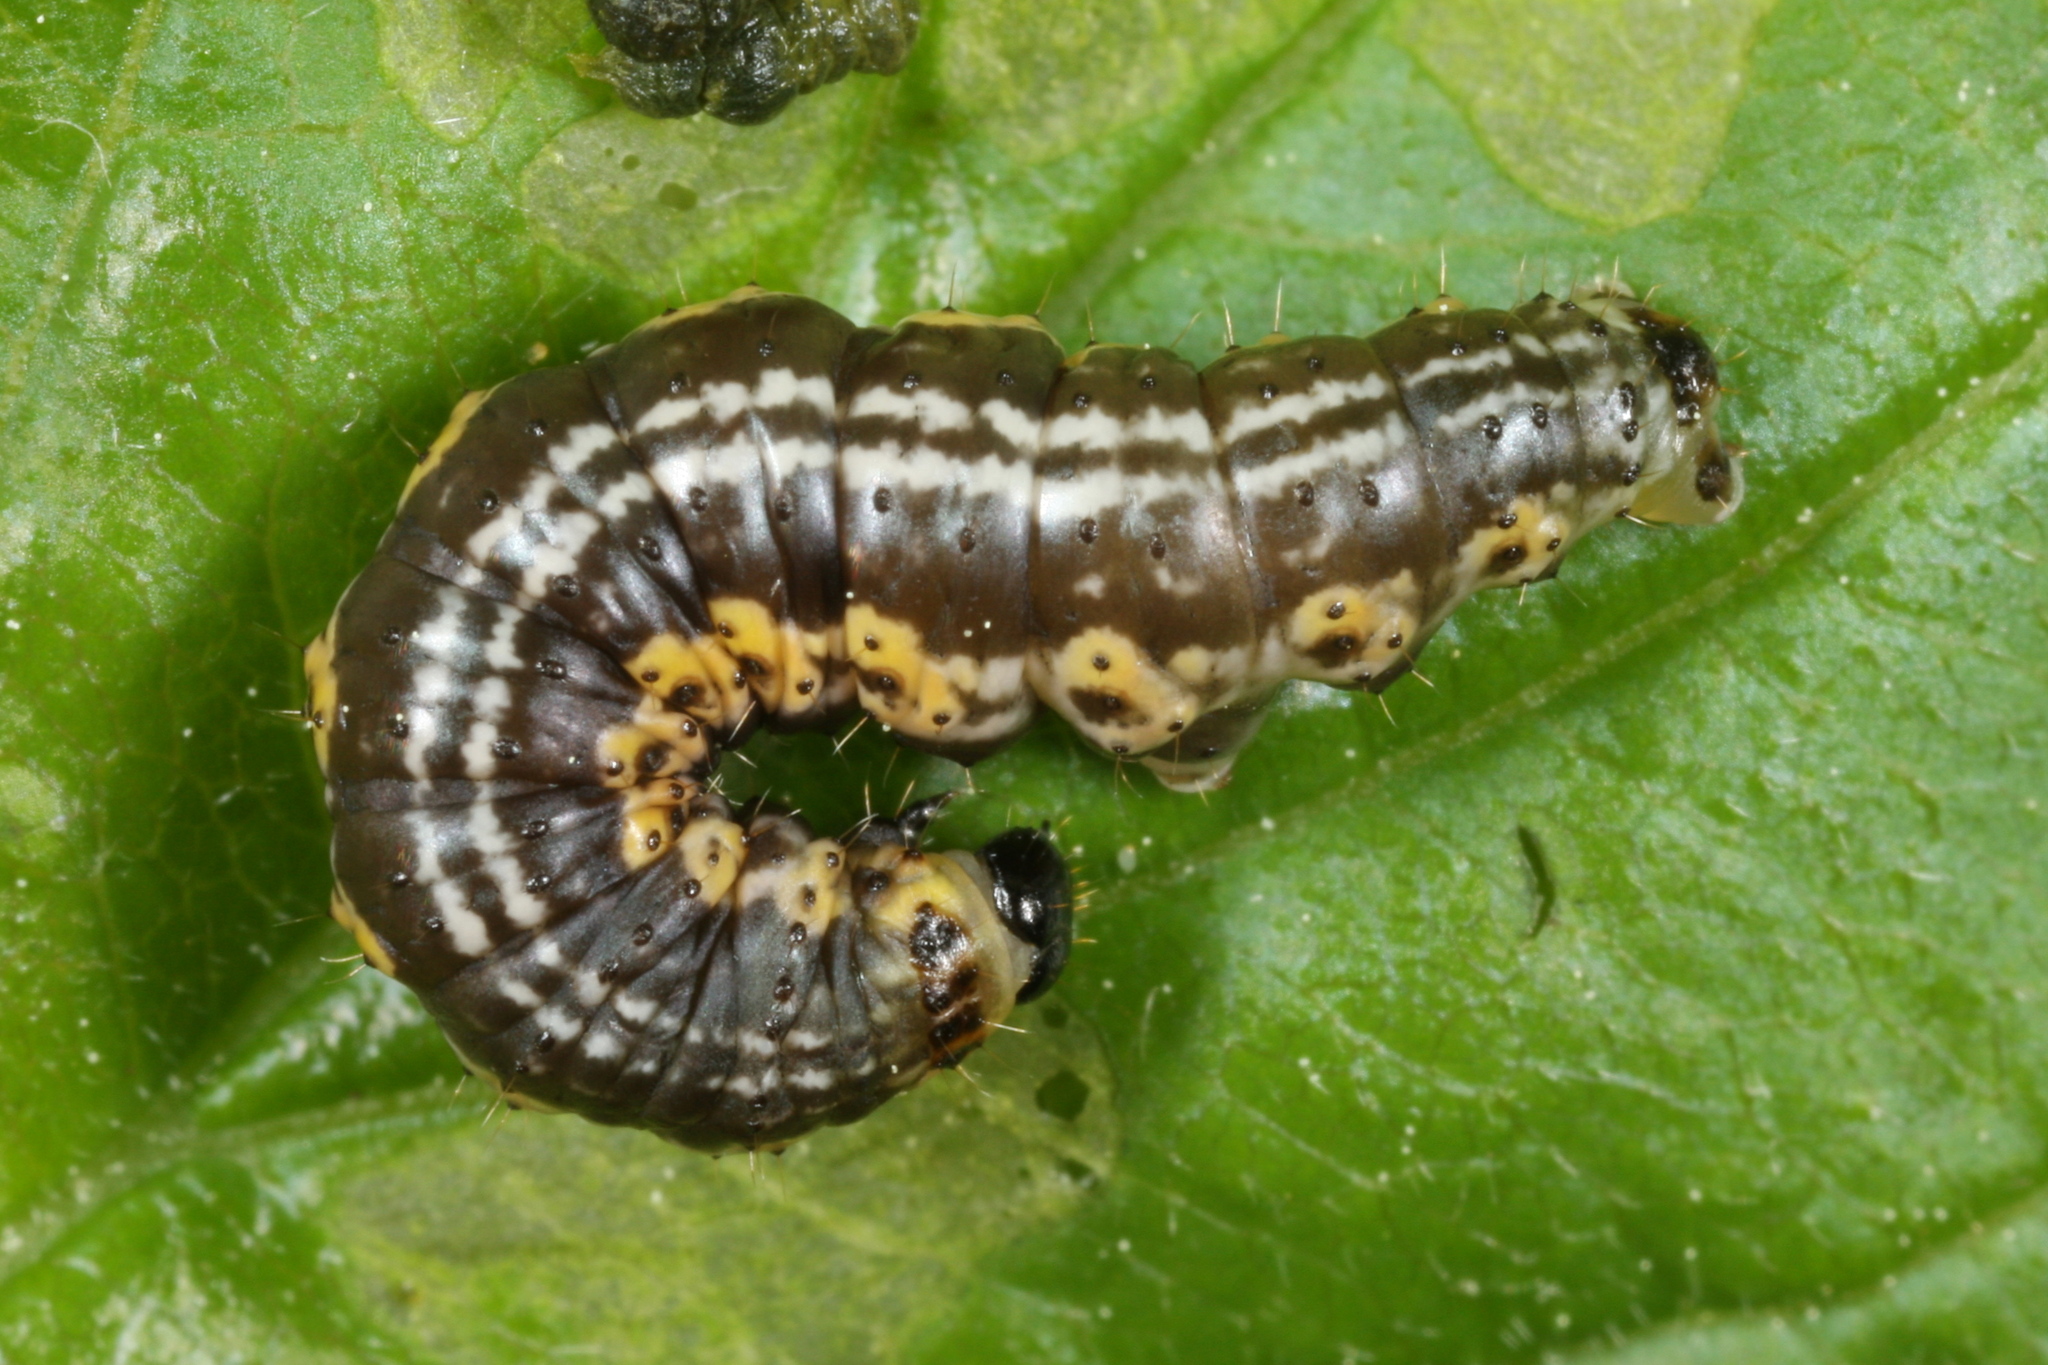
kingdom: Animalia
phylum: Arthropoda
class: Insecta
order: Lepidoptera
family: Geometridae
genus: Philereme
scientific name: Philereme vetulata
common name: Brown scallop
